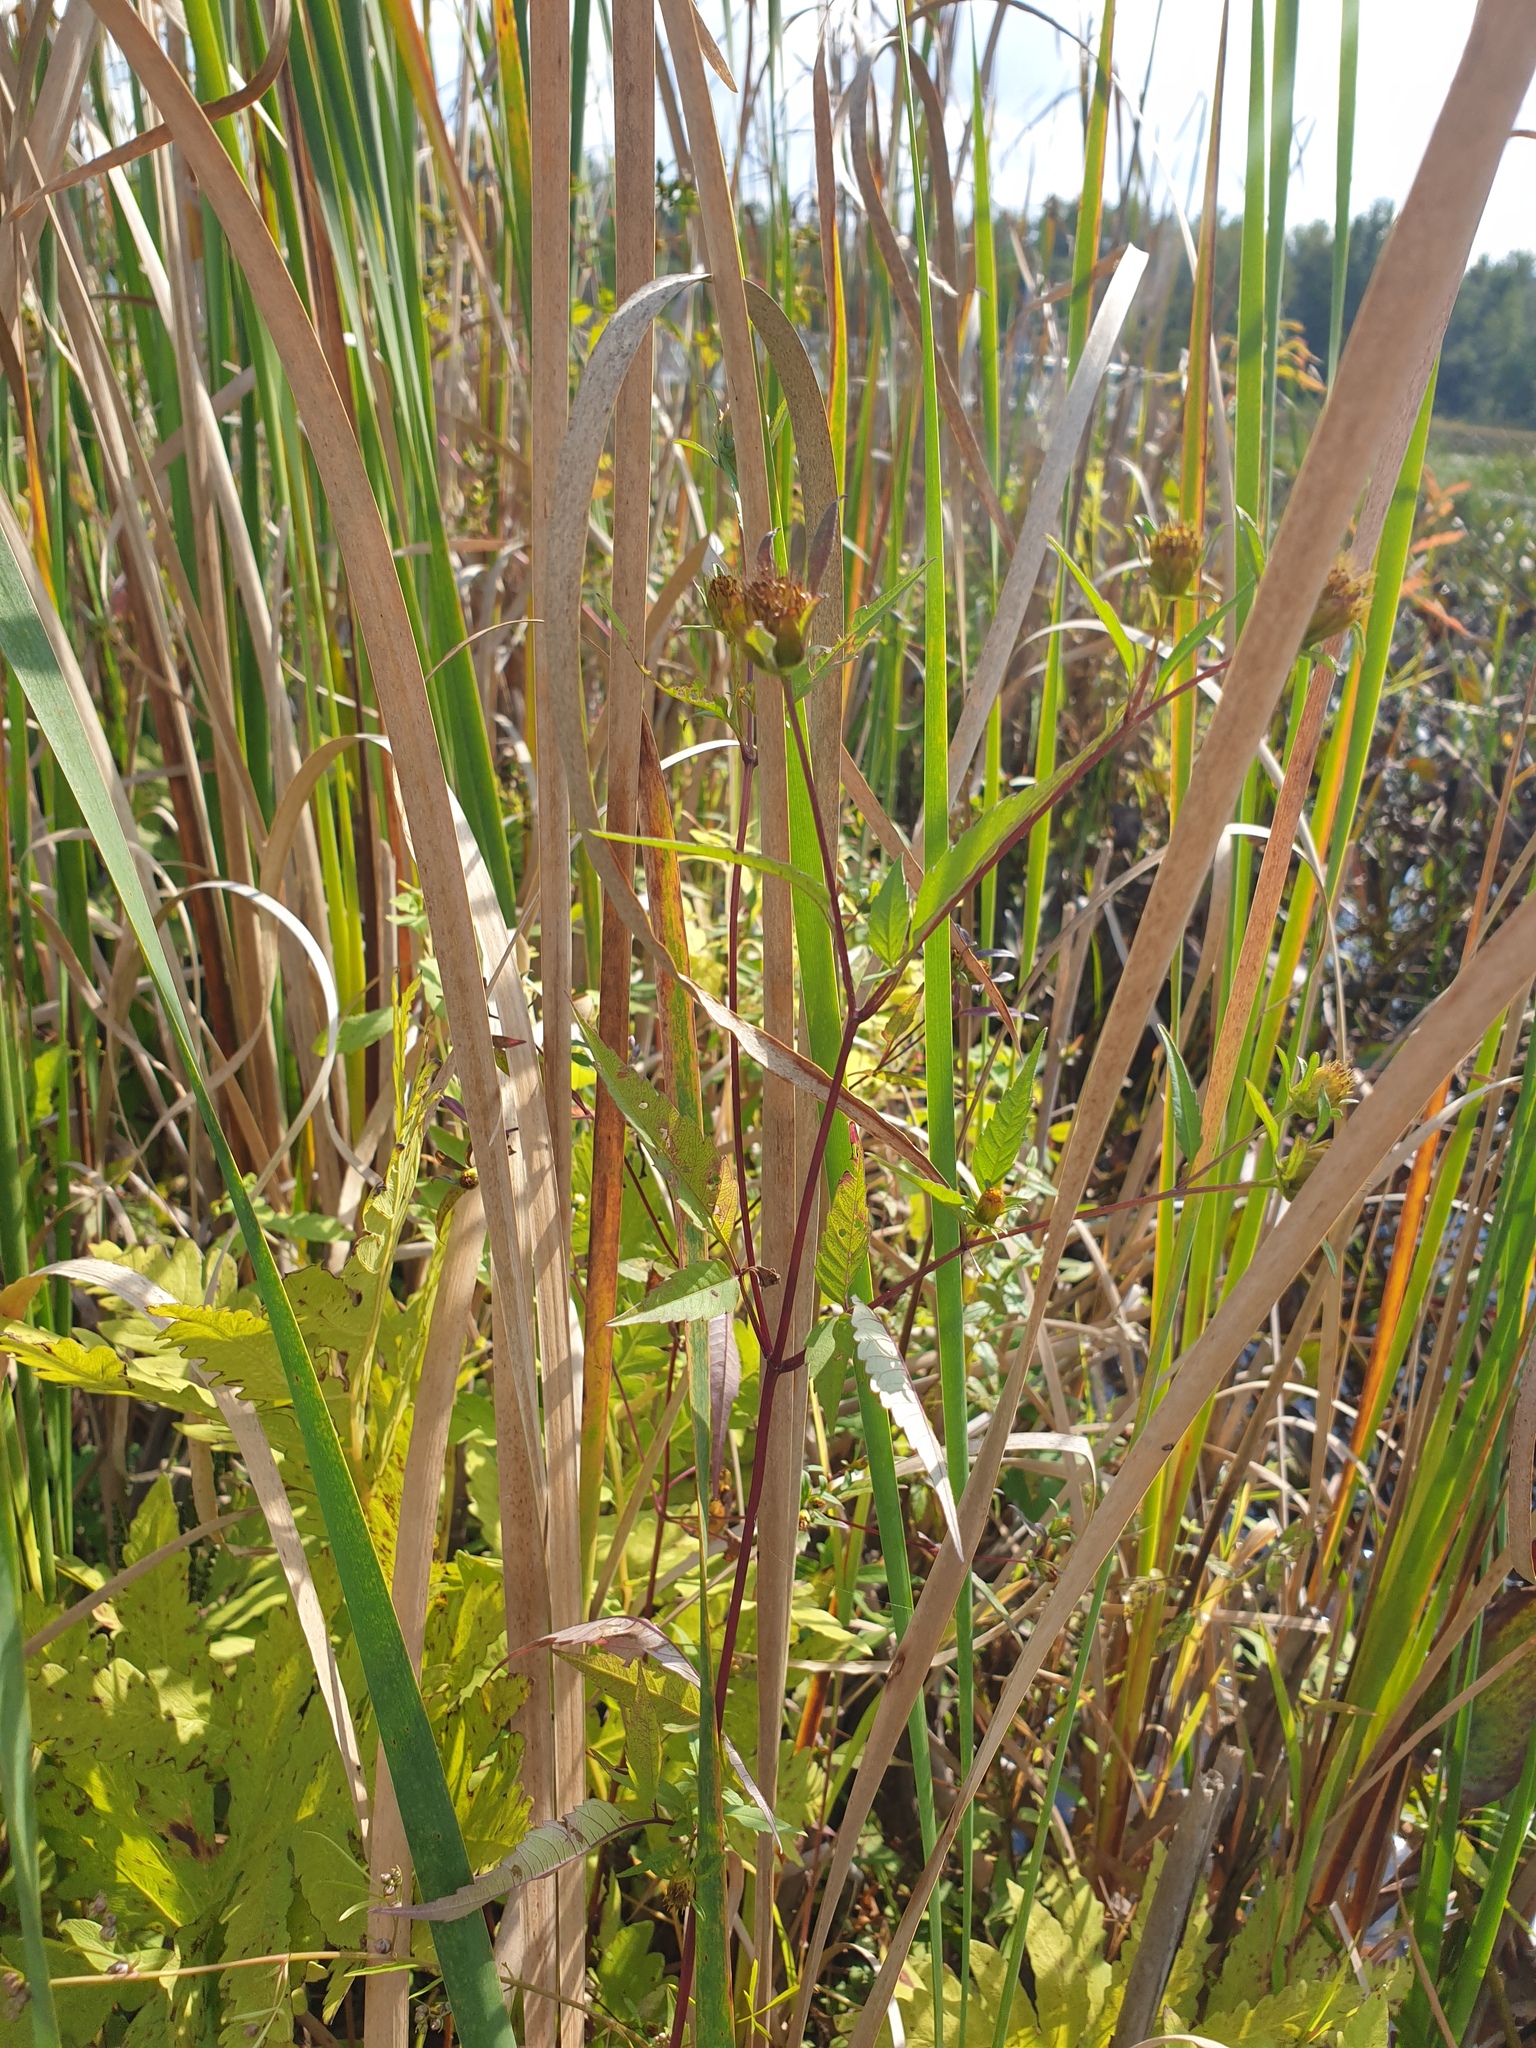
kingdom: Plantae
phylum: Tracheophyta
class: Magnoliopsida
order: Asterales
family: Asteraceae
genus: Bidens
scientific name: Bidens frondosa
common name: Beggarticks
